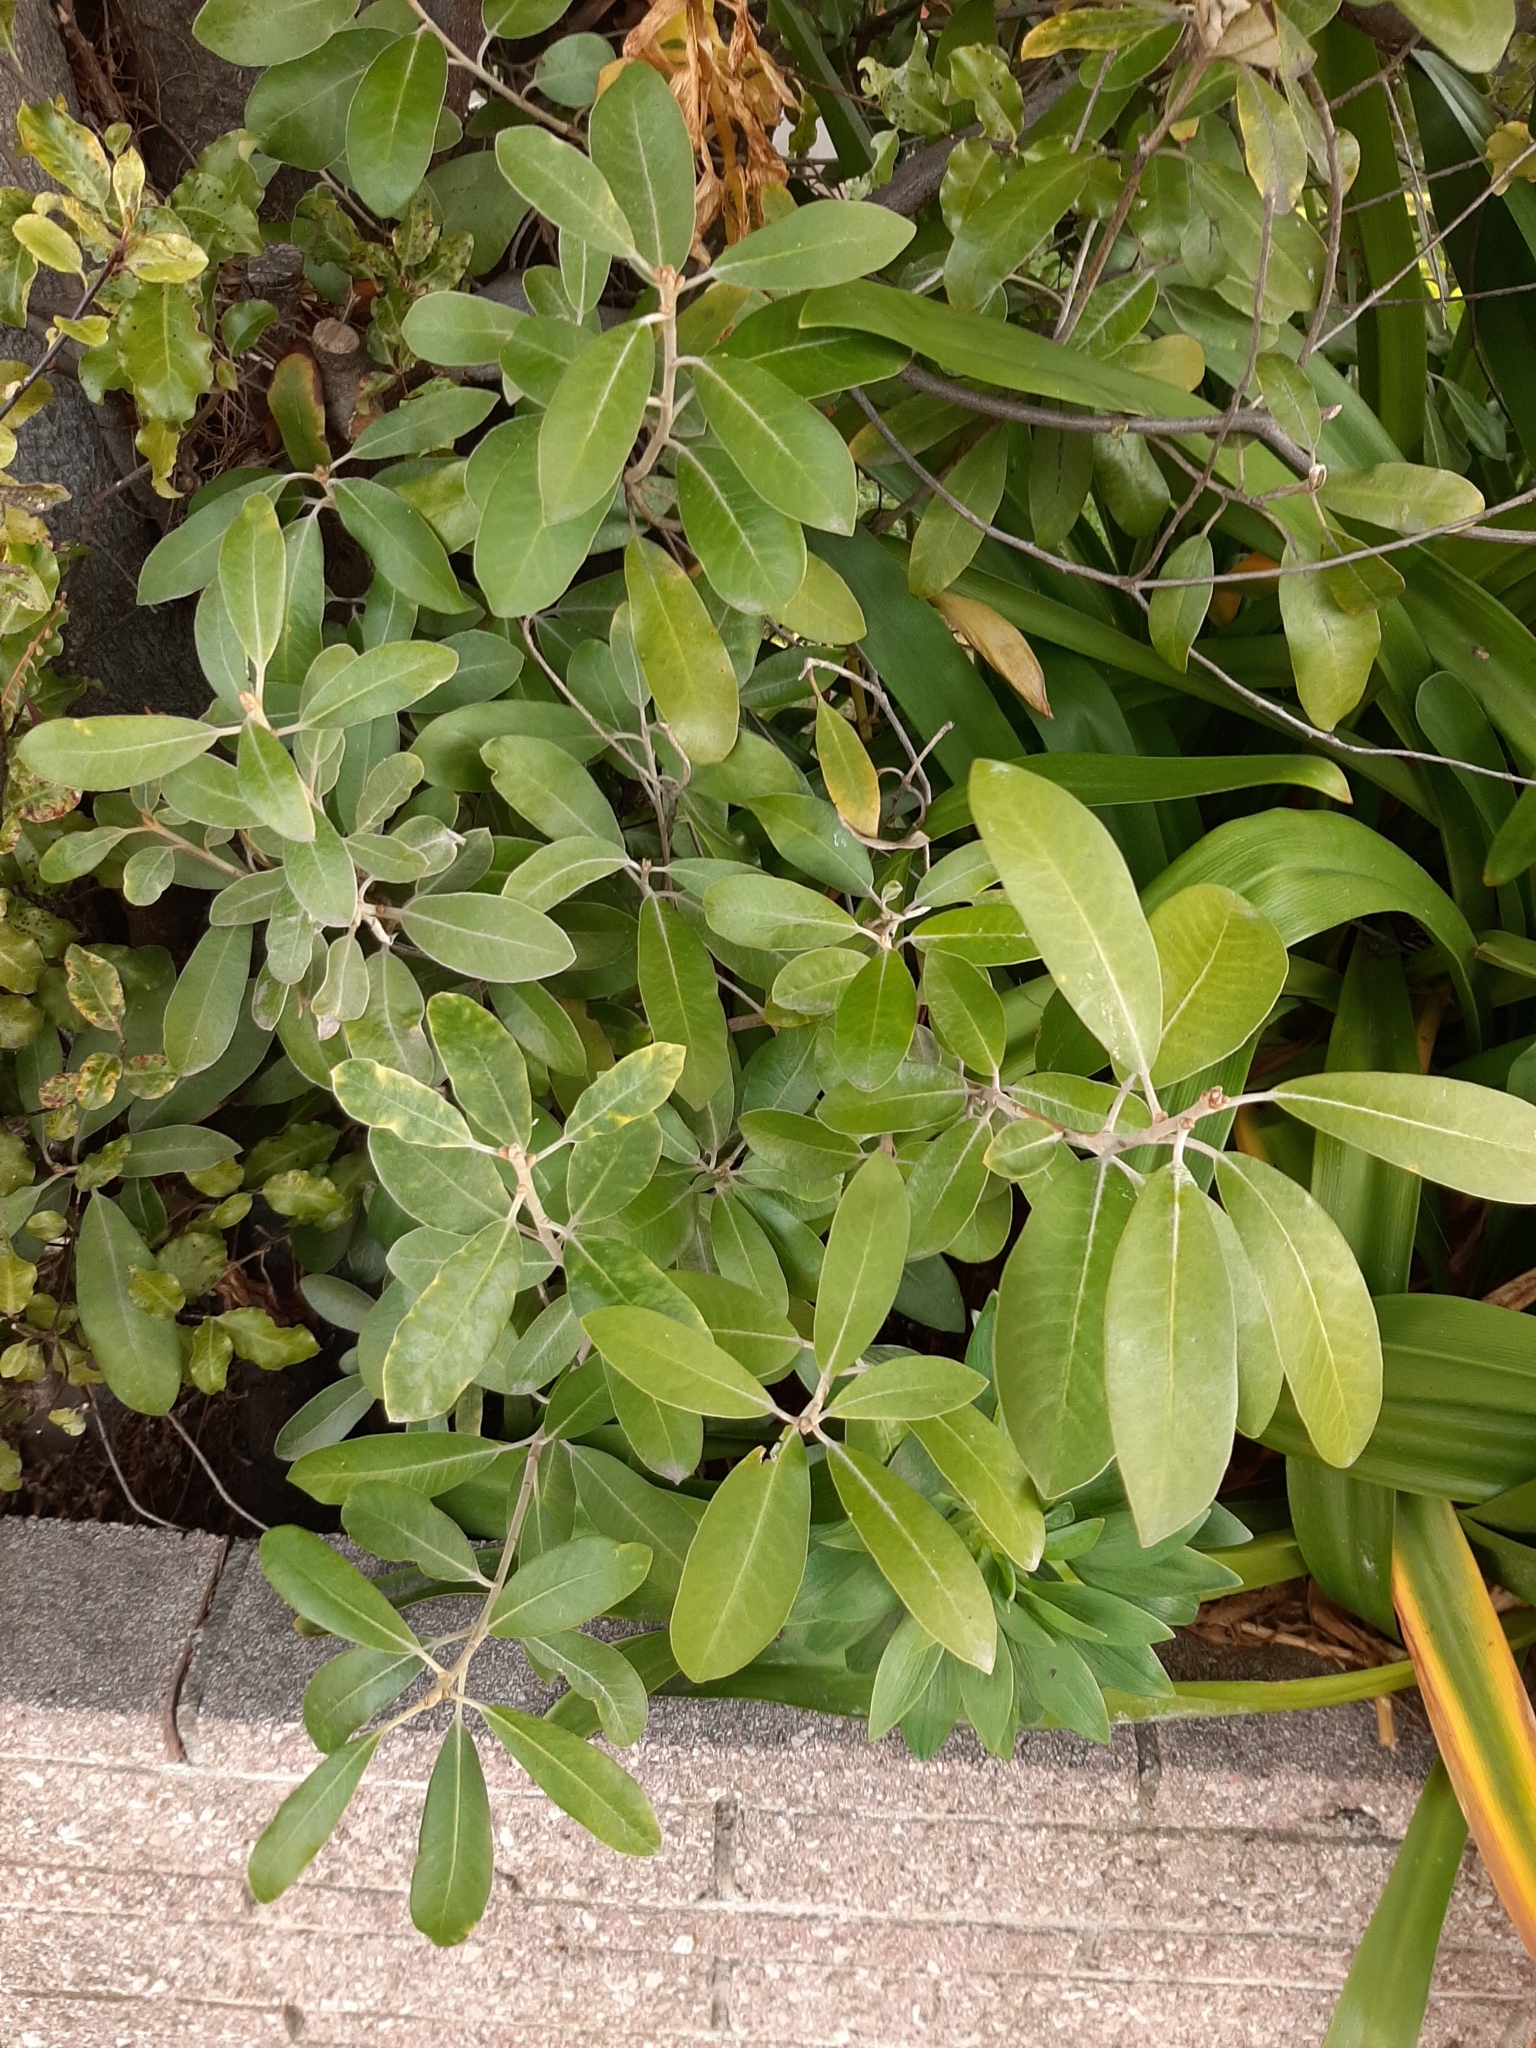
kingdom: Plantae
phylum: Tracheophyta
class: Magnoliopsida
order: Apiales
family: Pittosporaceae
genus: Pittosporum
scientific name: Pittosporum ralphii
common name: Ralph's desertwillow
